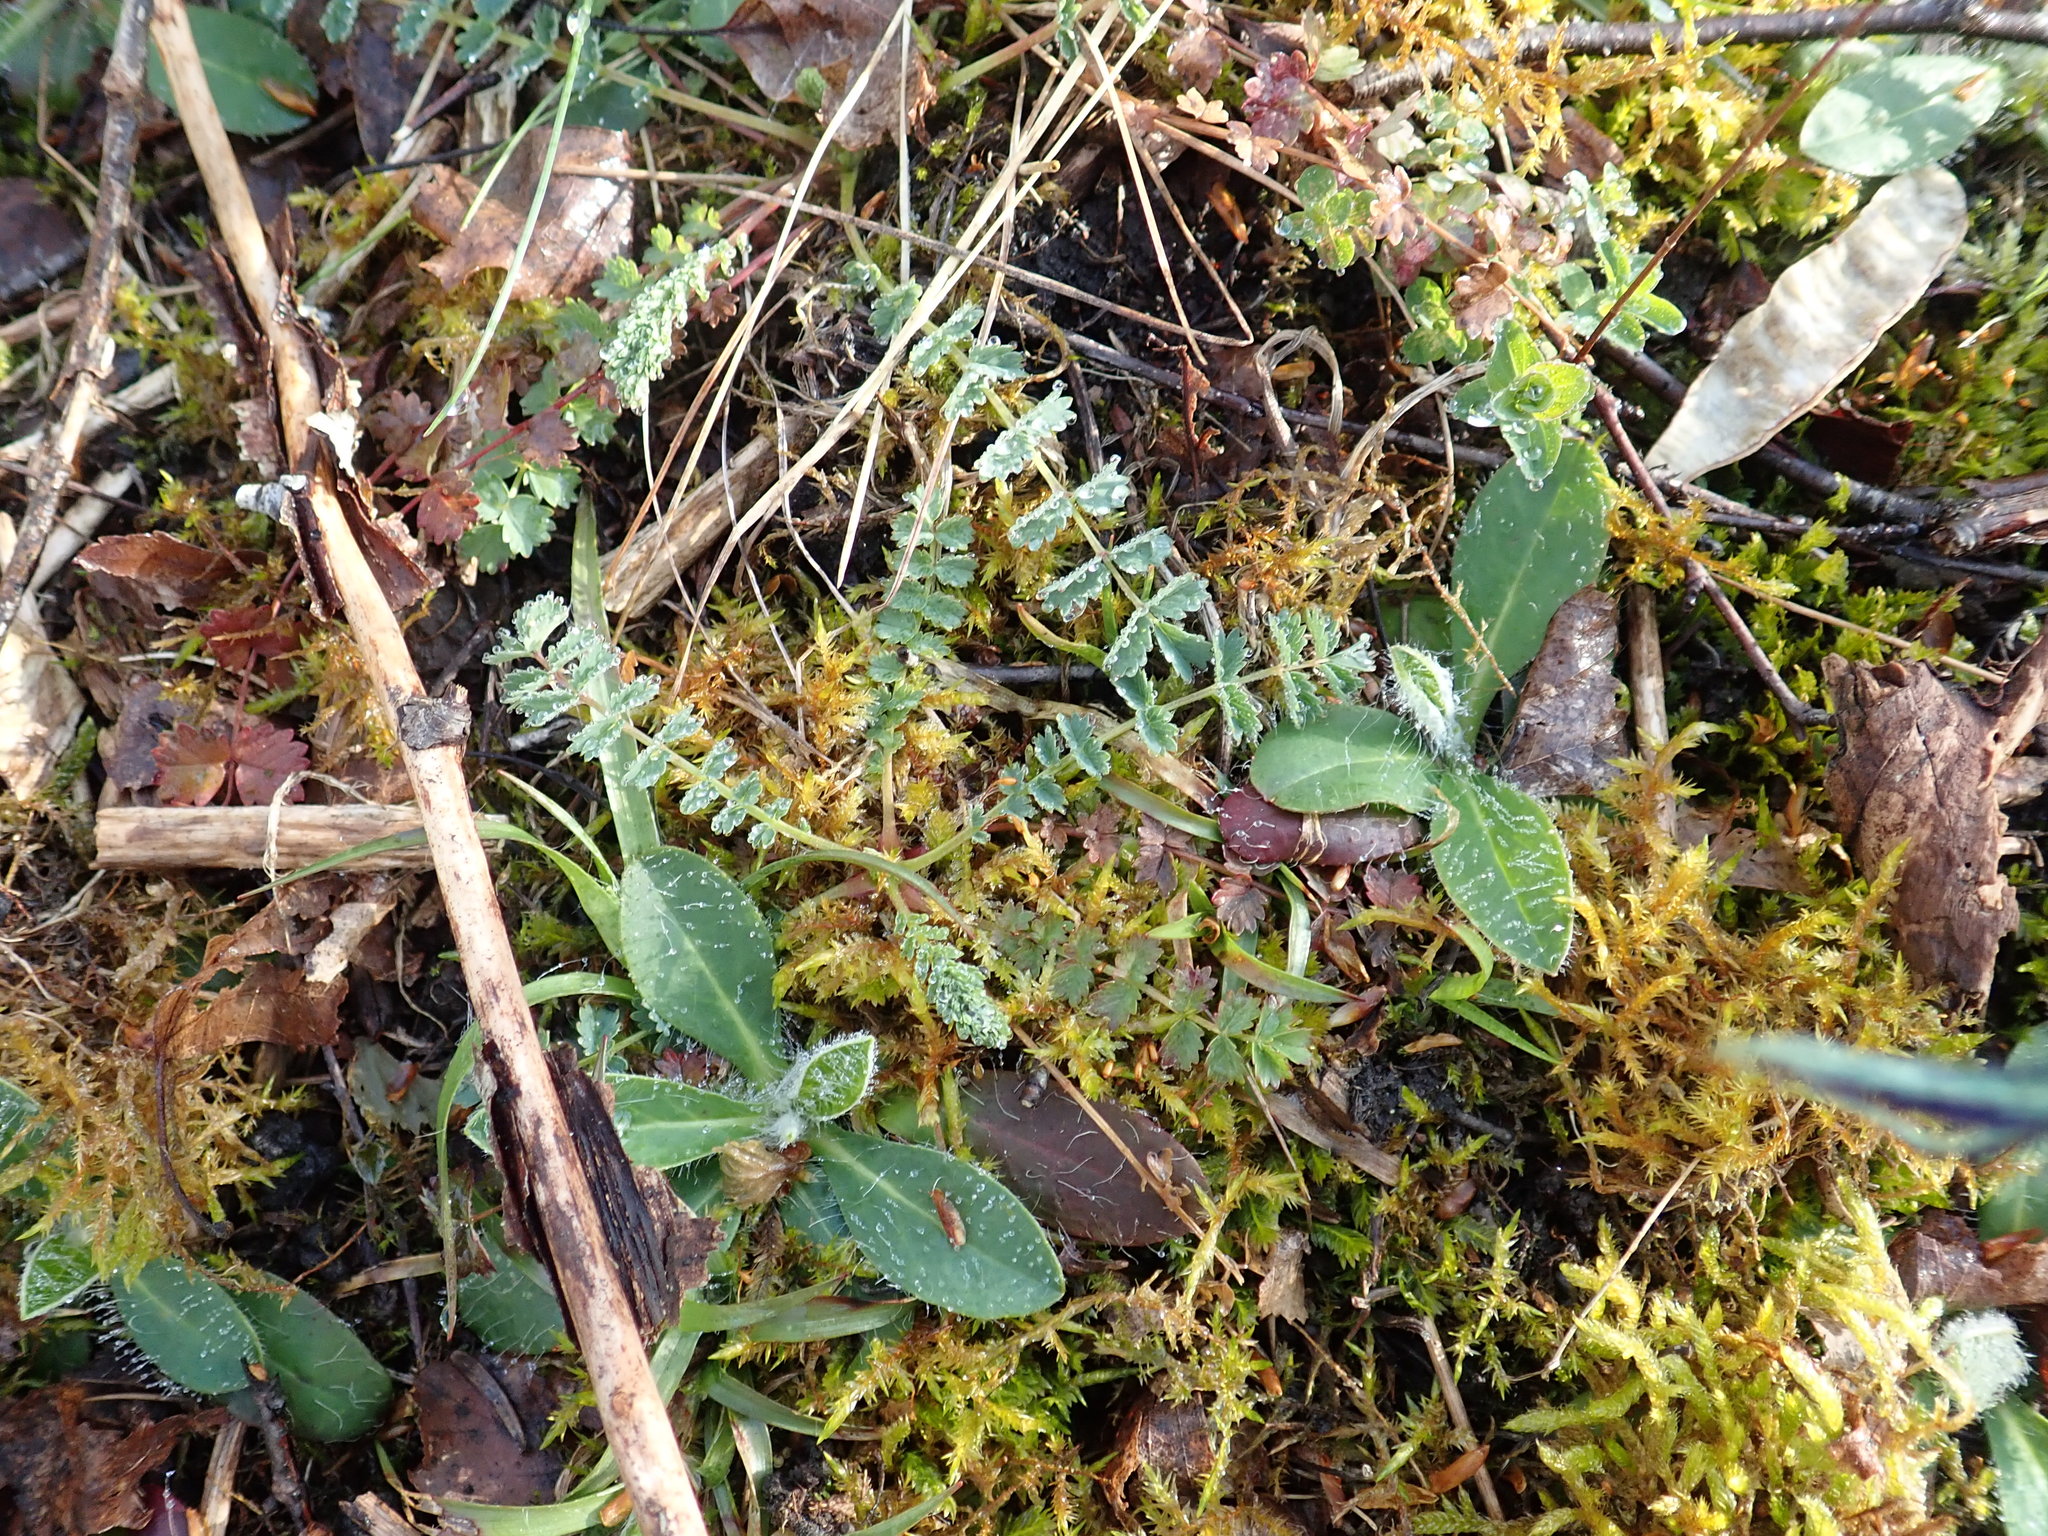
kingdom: Plantae
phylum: Tracheophyta
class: Magnoliopsida
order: Rosales
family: Rosaceae
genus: Poterium
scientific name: Poterium sanguisorba
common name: Salad burnet
